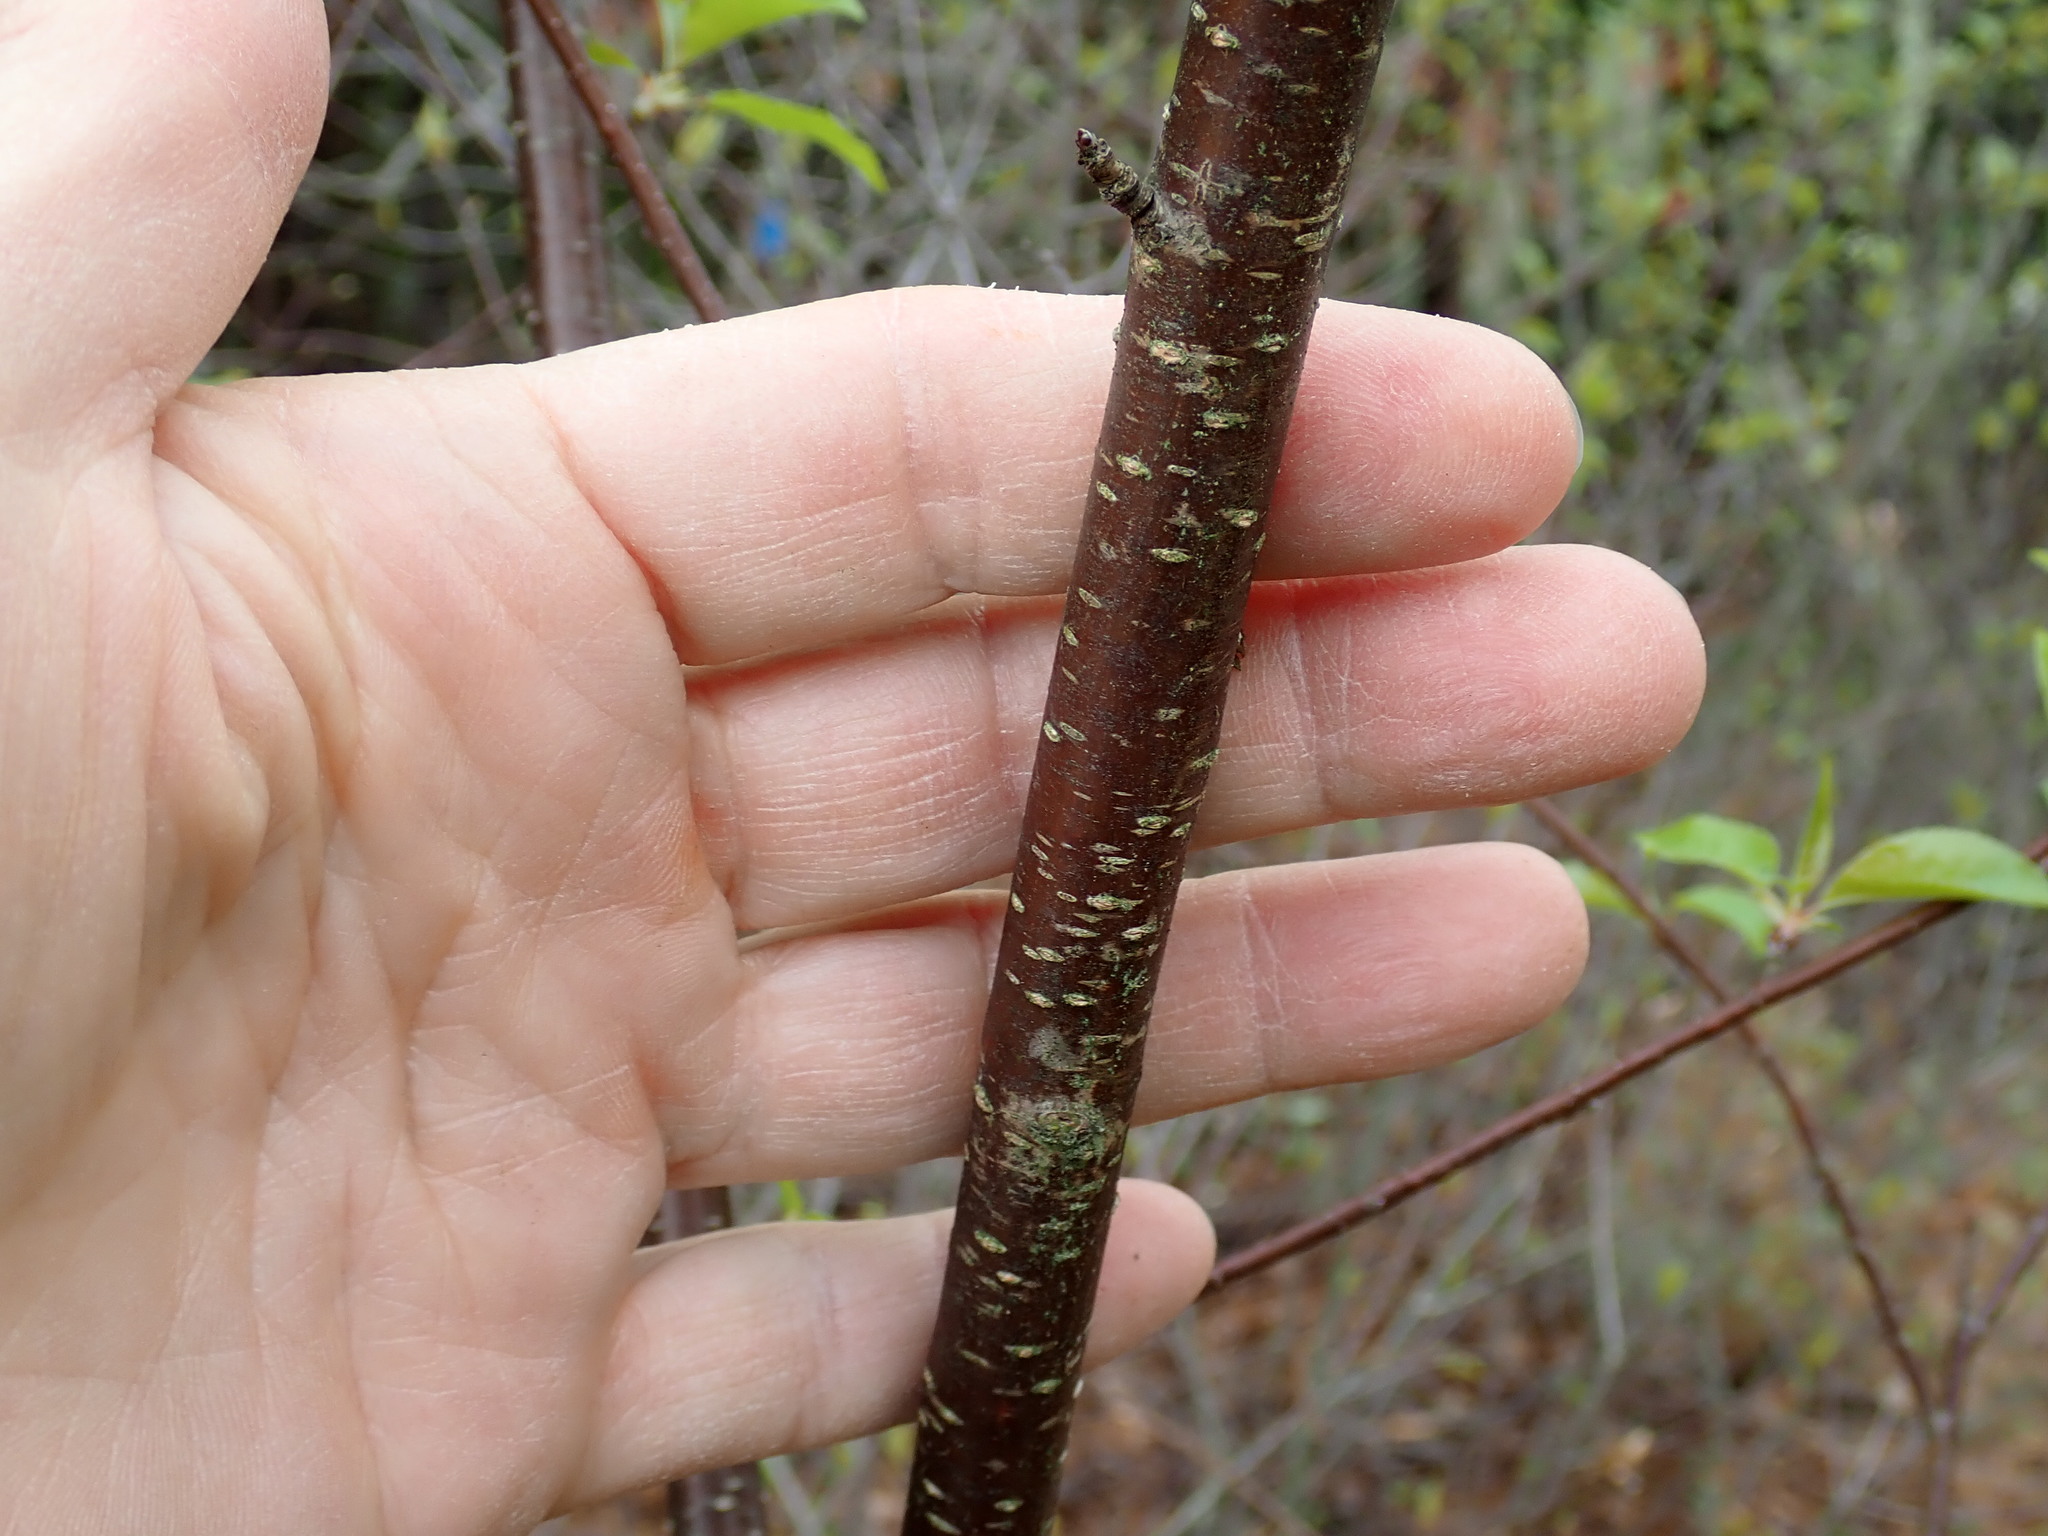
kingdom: Plantae
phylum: Tracheophyta
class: Magnoliopsida
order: Rosales
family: Rosaceae
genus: Prunus
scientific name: Prunus pensylvanica
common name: Pin cherry
